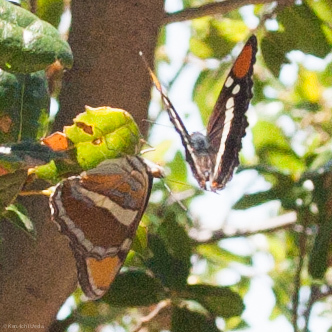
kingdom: Animalia
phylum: Arthropoda
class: Insecta
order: Lepidoptera
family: Nymphalidae
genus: Limenitis
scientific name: Limenitis bredowii
